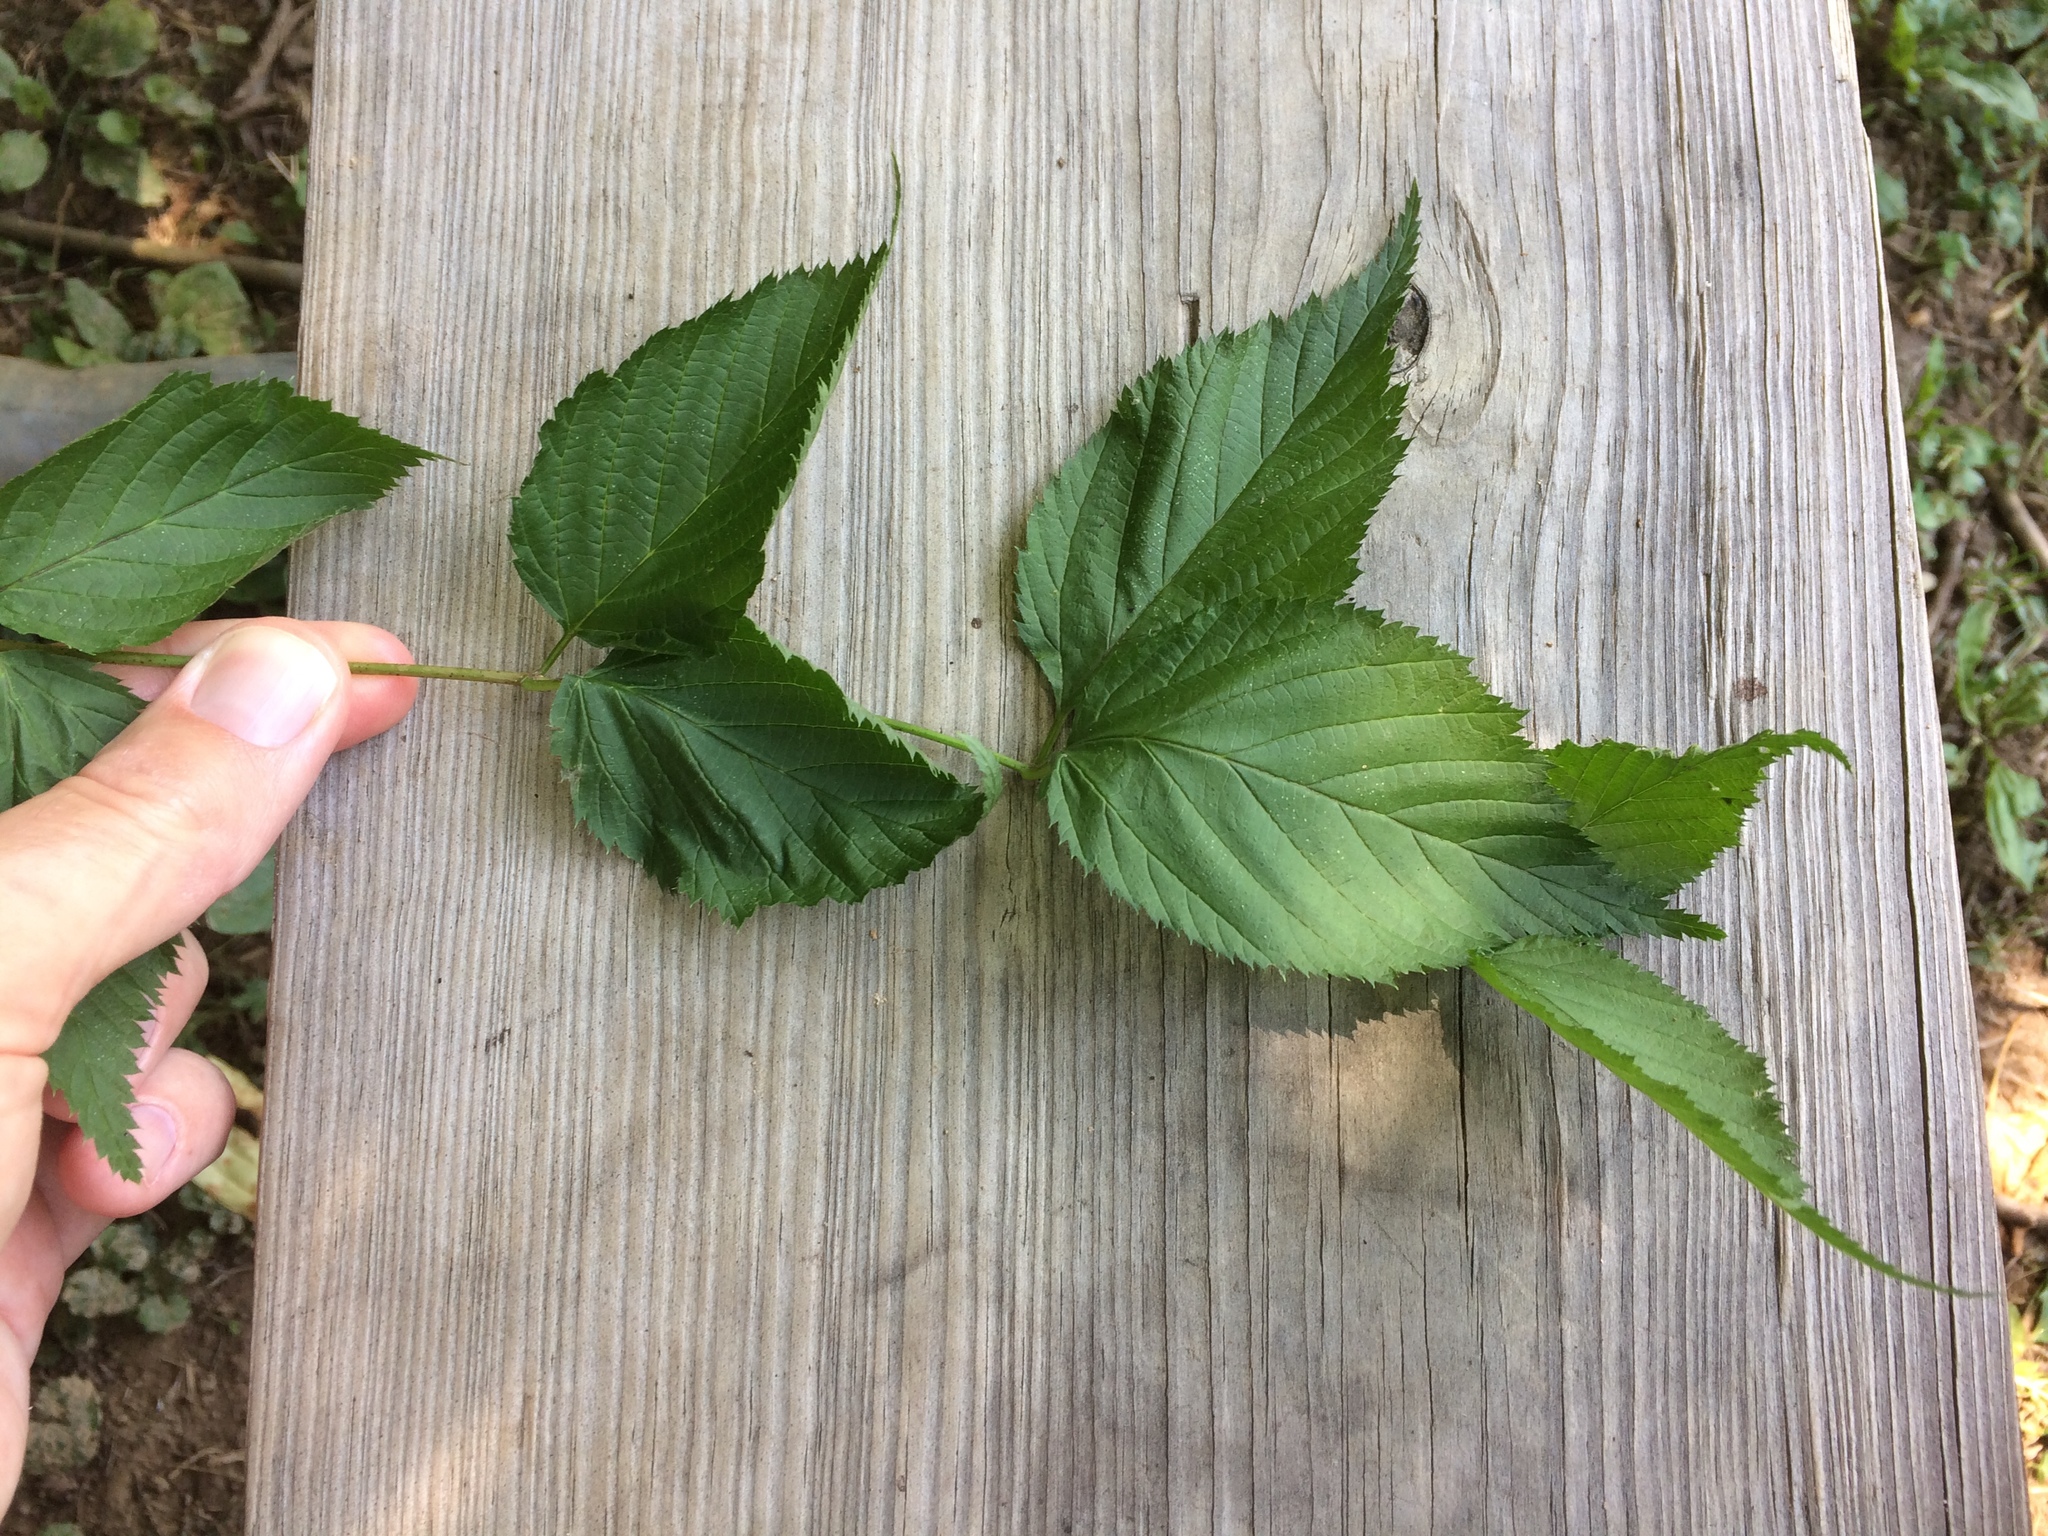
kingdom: Plantae
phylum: Tracheophyta
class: Magnoliopsida
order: Rosales
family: Rosaceae
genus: Rhodotypos
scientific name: Rhodotypos scandens
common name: Jetbead
